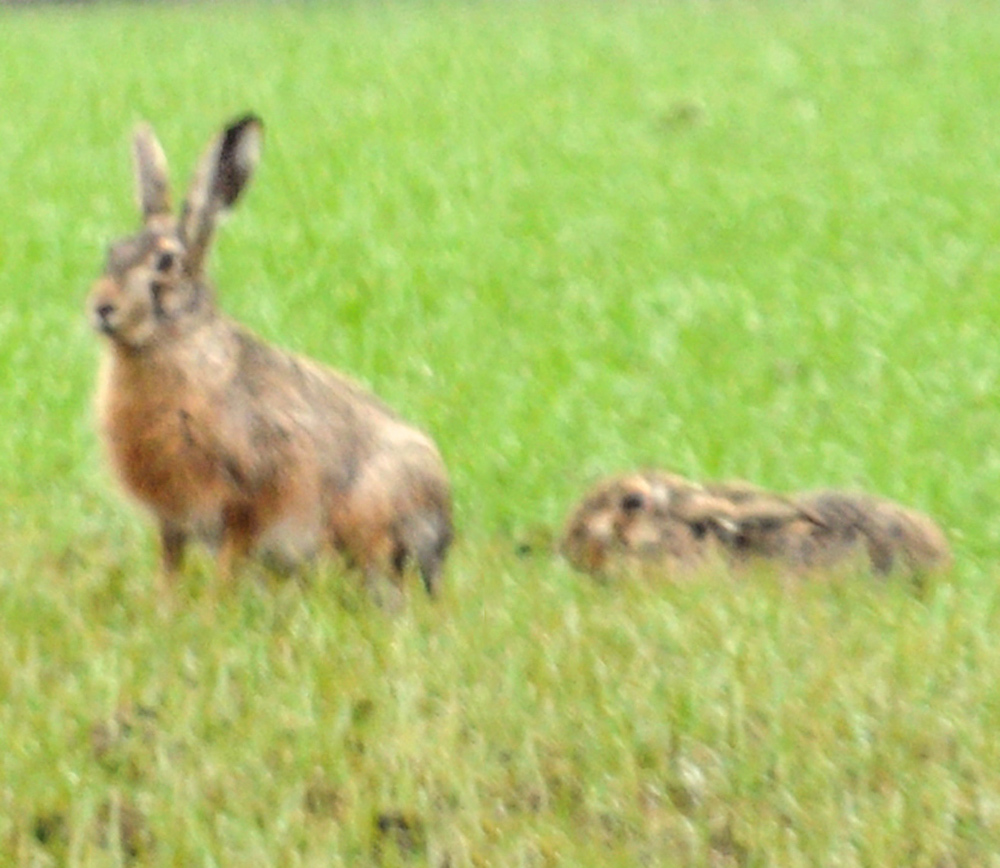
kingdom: Animalia
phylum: Chordata
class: Mammalia
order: Lagomorpha
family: Leporidae
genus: Lepus
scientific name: Lepus europaeus
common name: European hare
